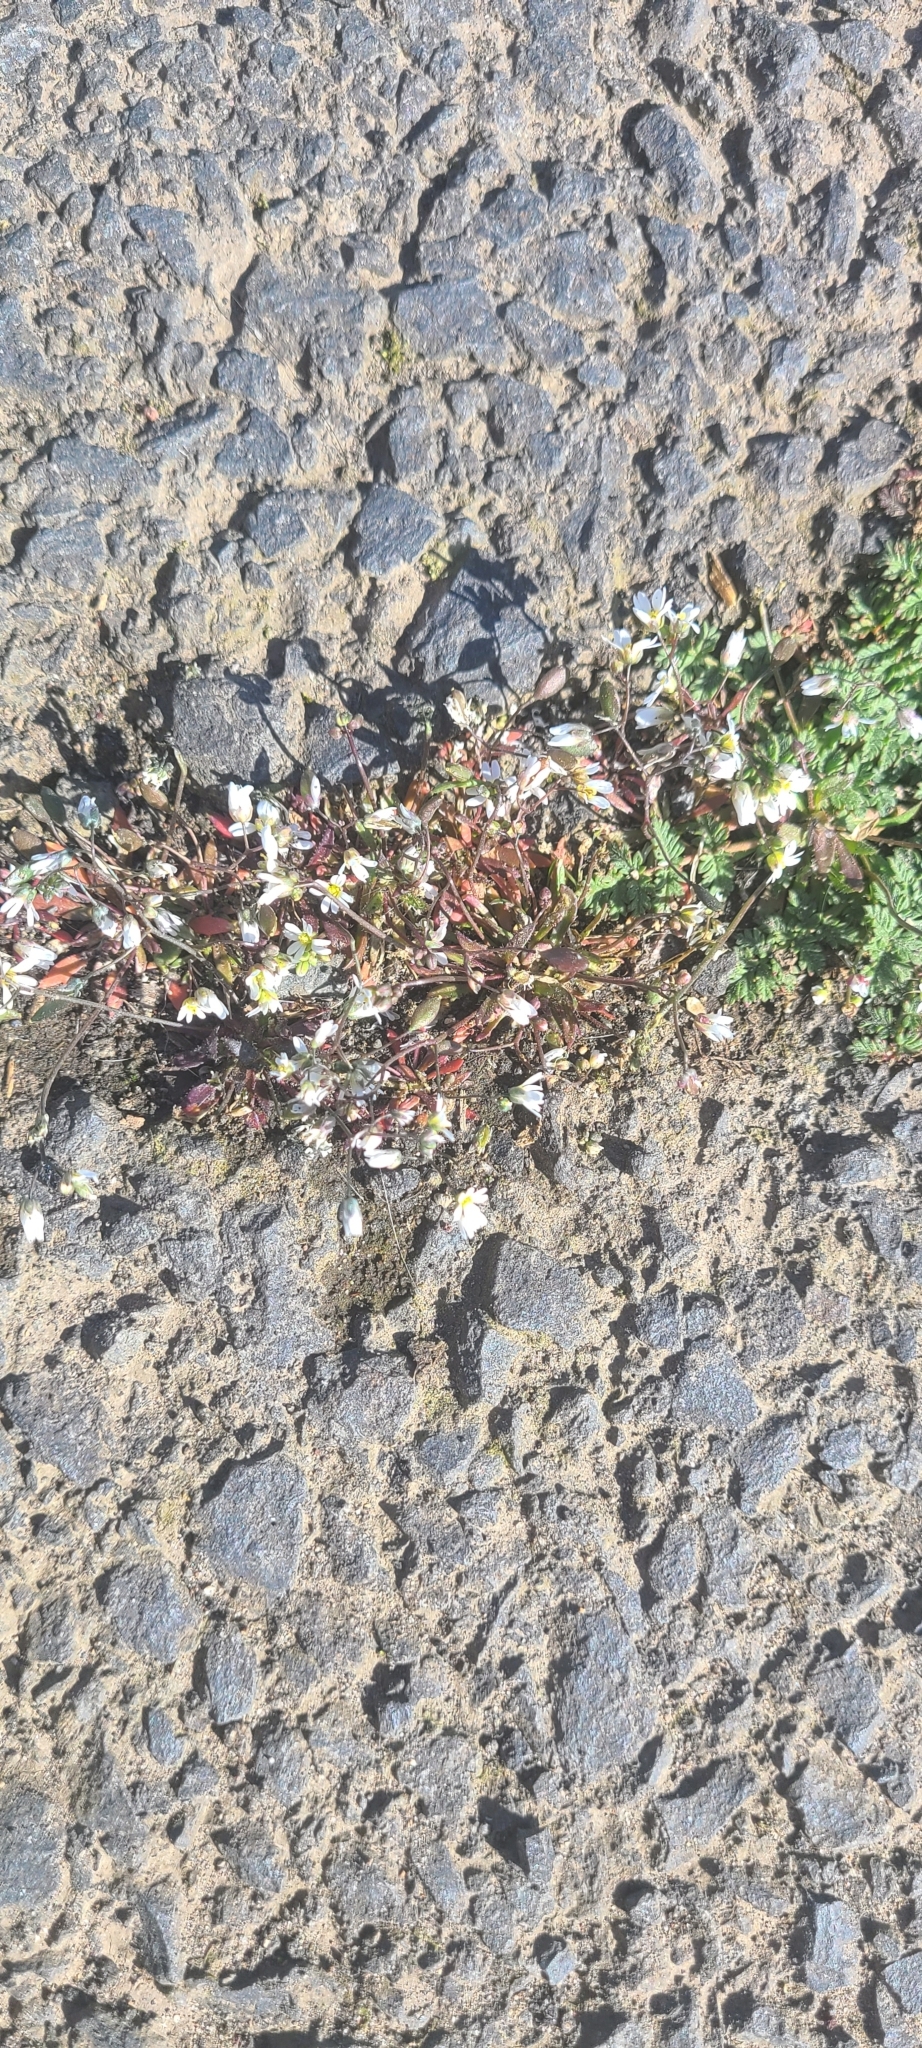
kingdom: Plantae
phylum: Tracheophyta
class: Magnoliopsida
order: Brassicales
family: Brassicaceae
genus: Draba
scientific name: Draba verna
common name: Spring draba
